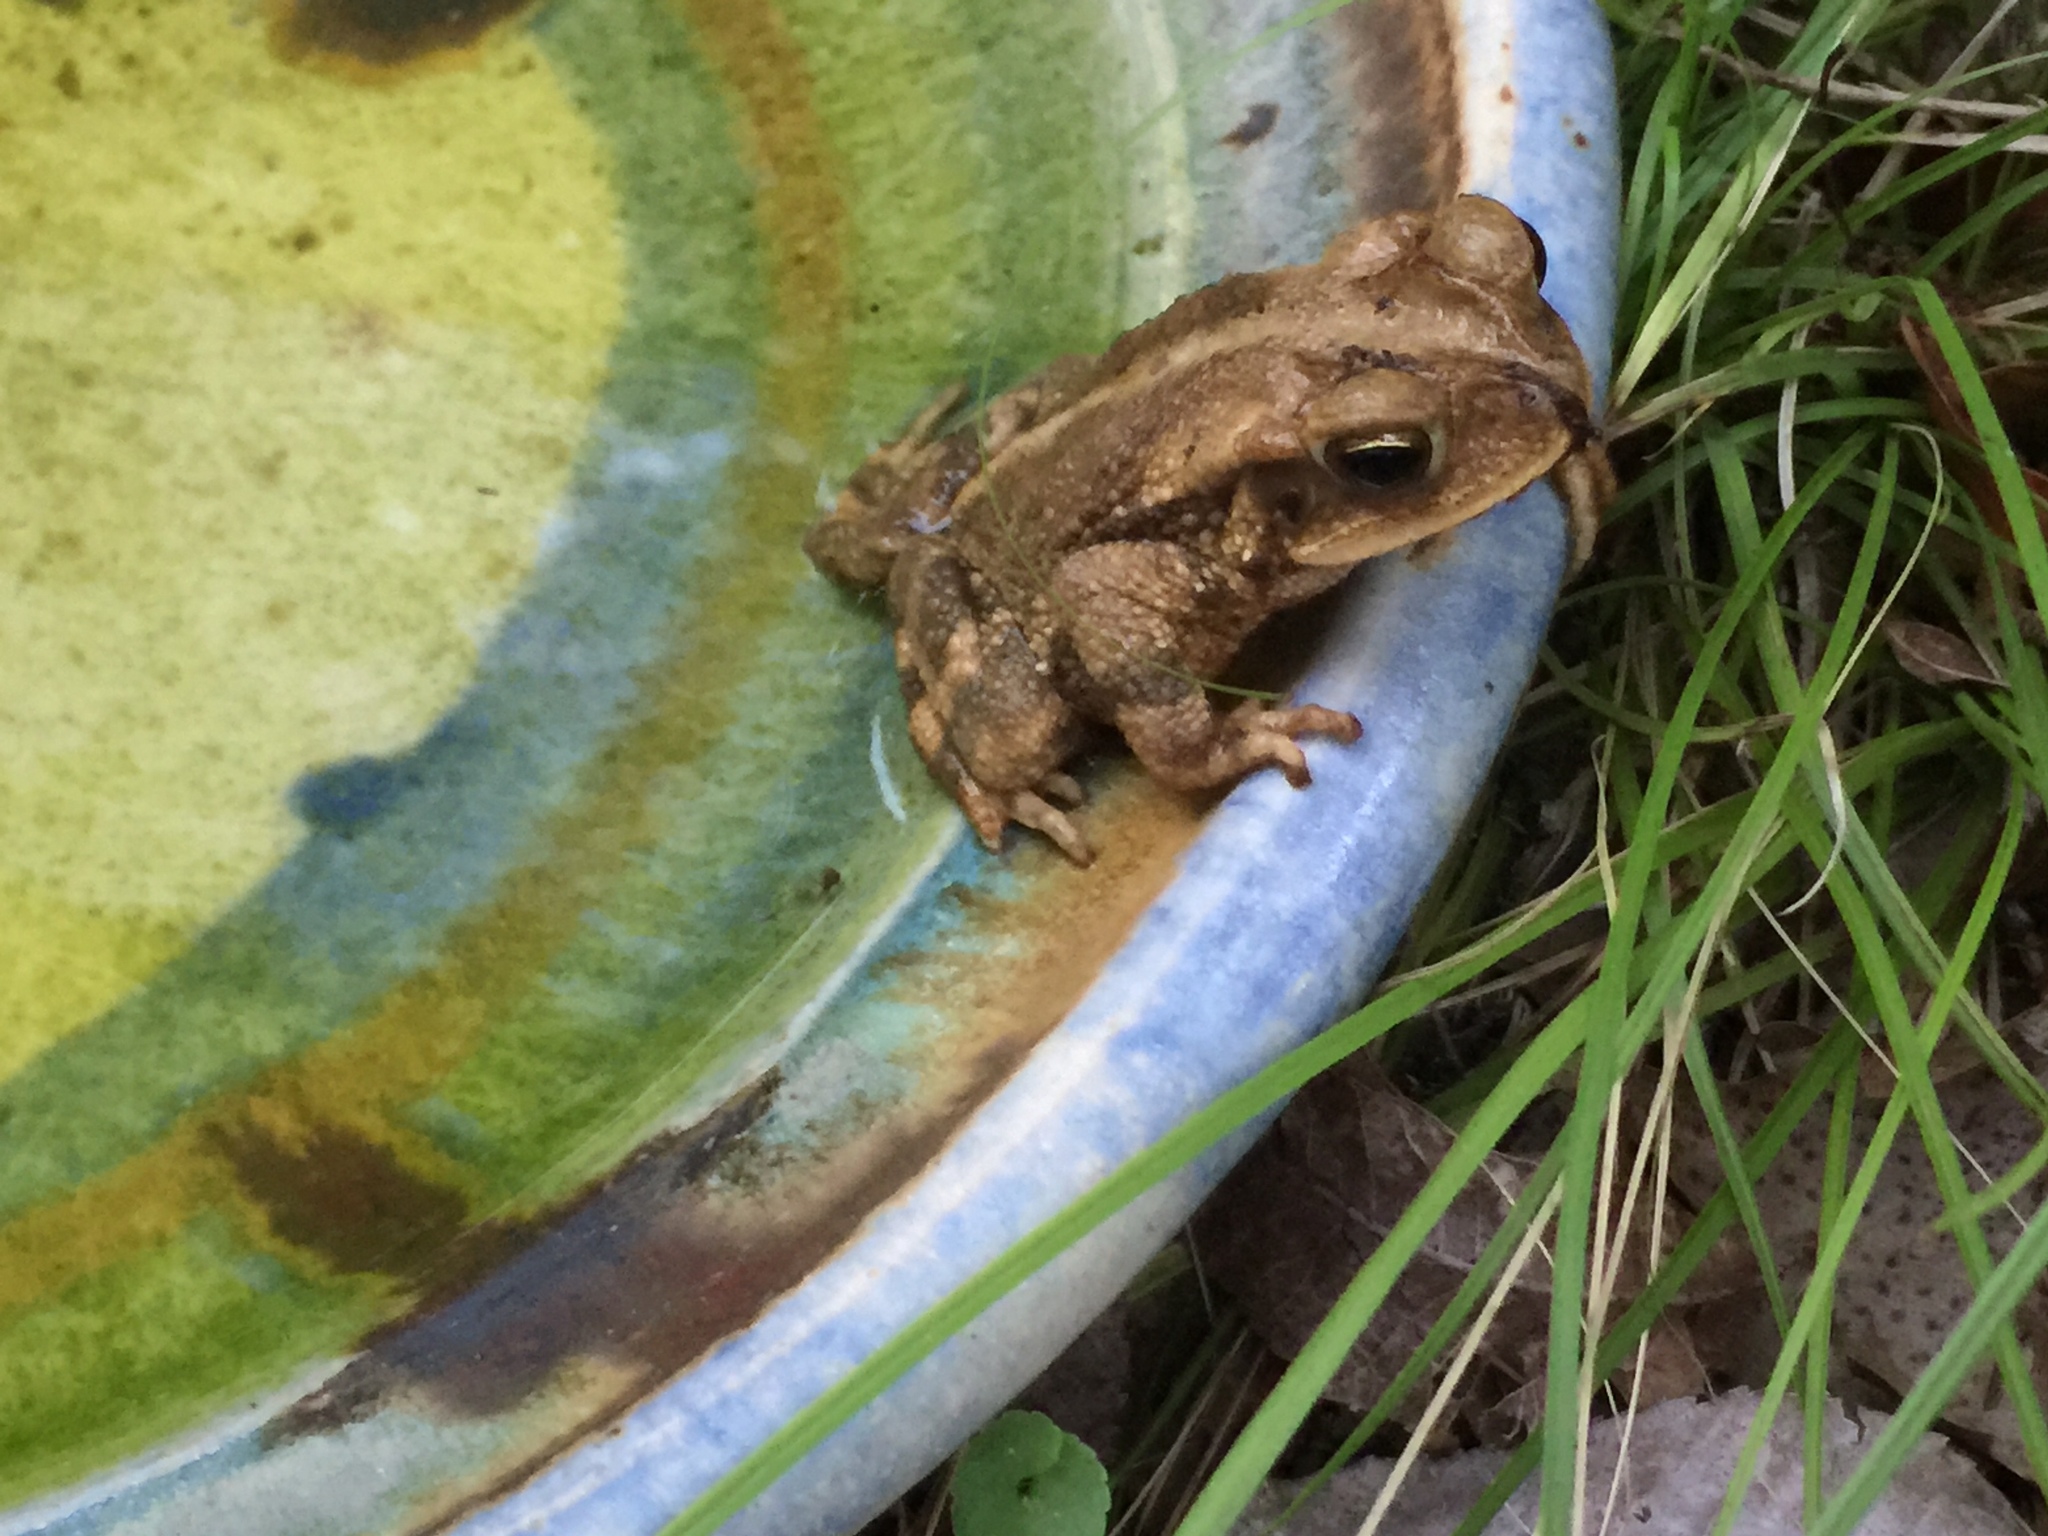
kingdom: Animalia
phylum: Chordata
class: Amphibia
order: Anura
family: Bufonidae
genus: Incilius
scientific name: Incilius nebulifer
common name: Gulf coast toad
